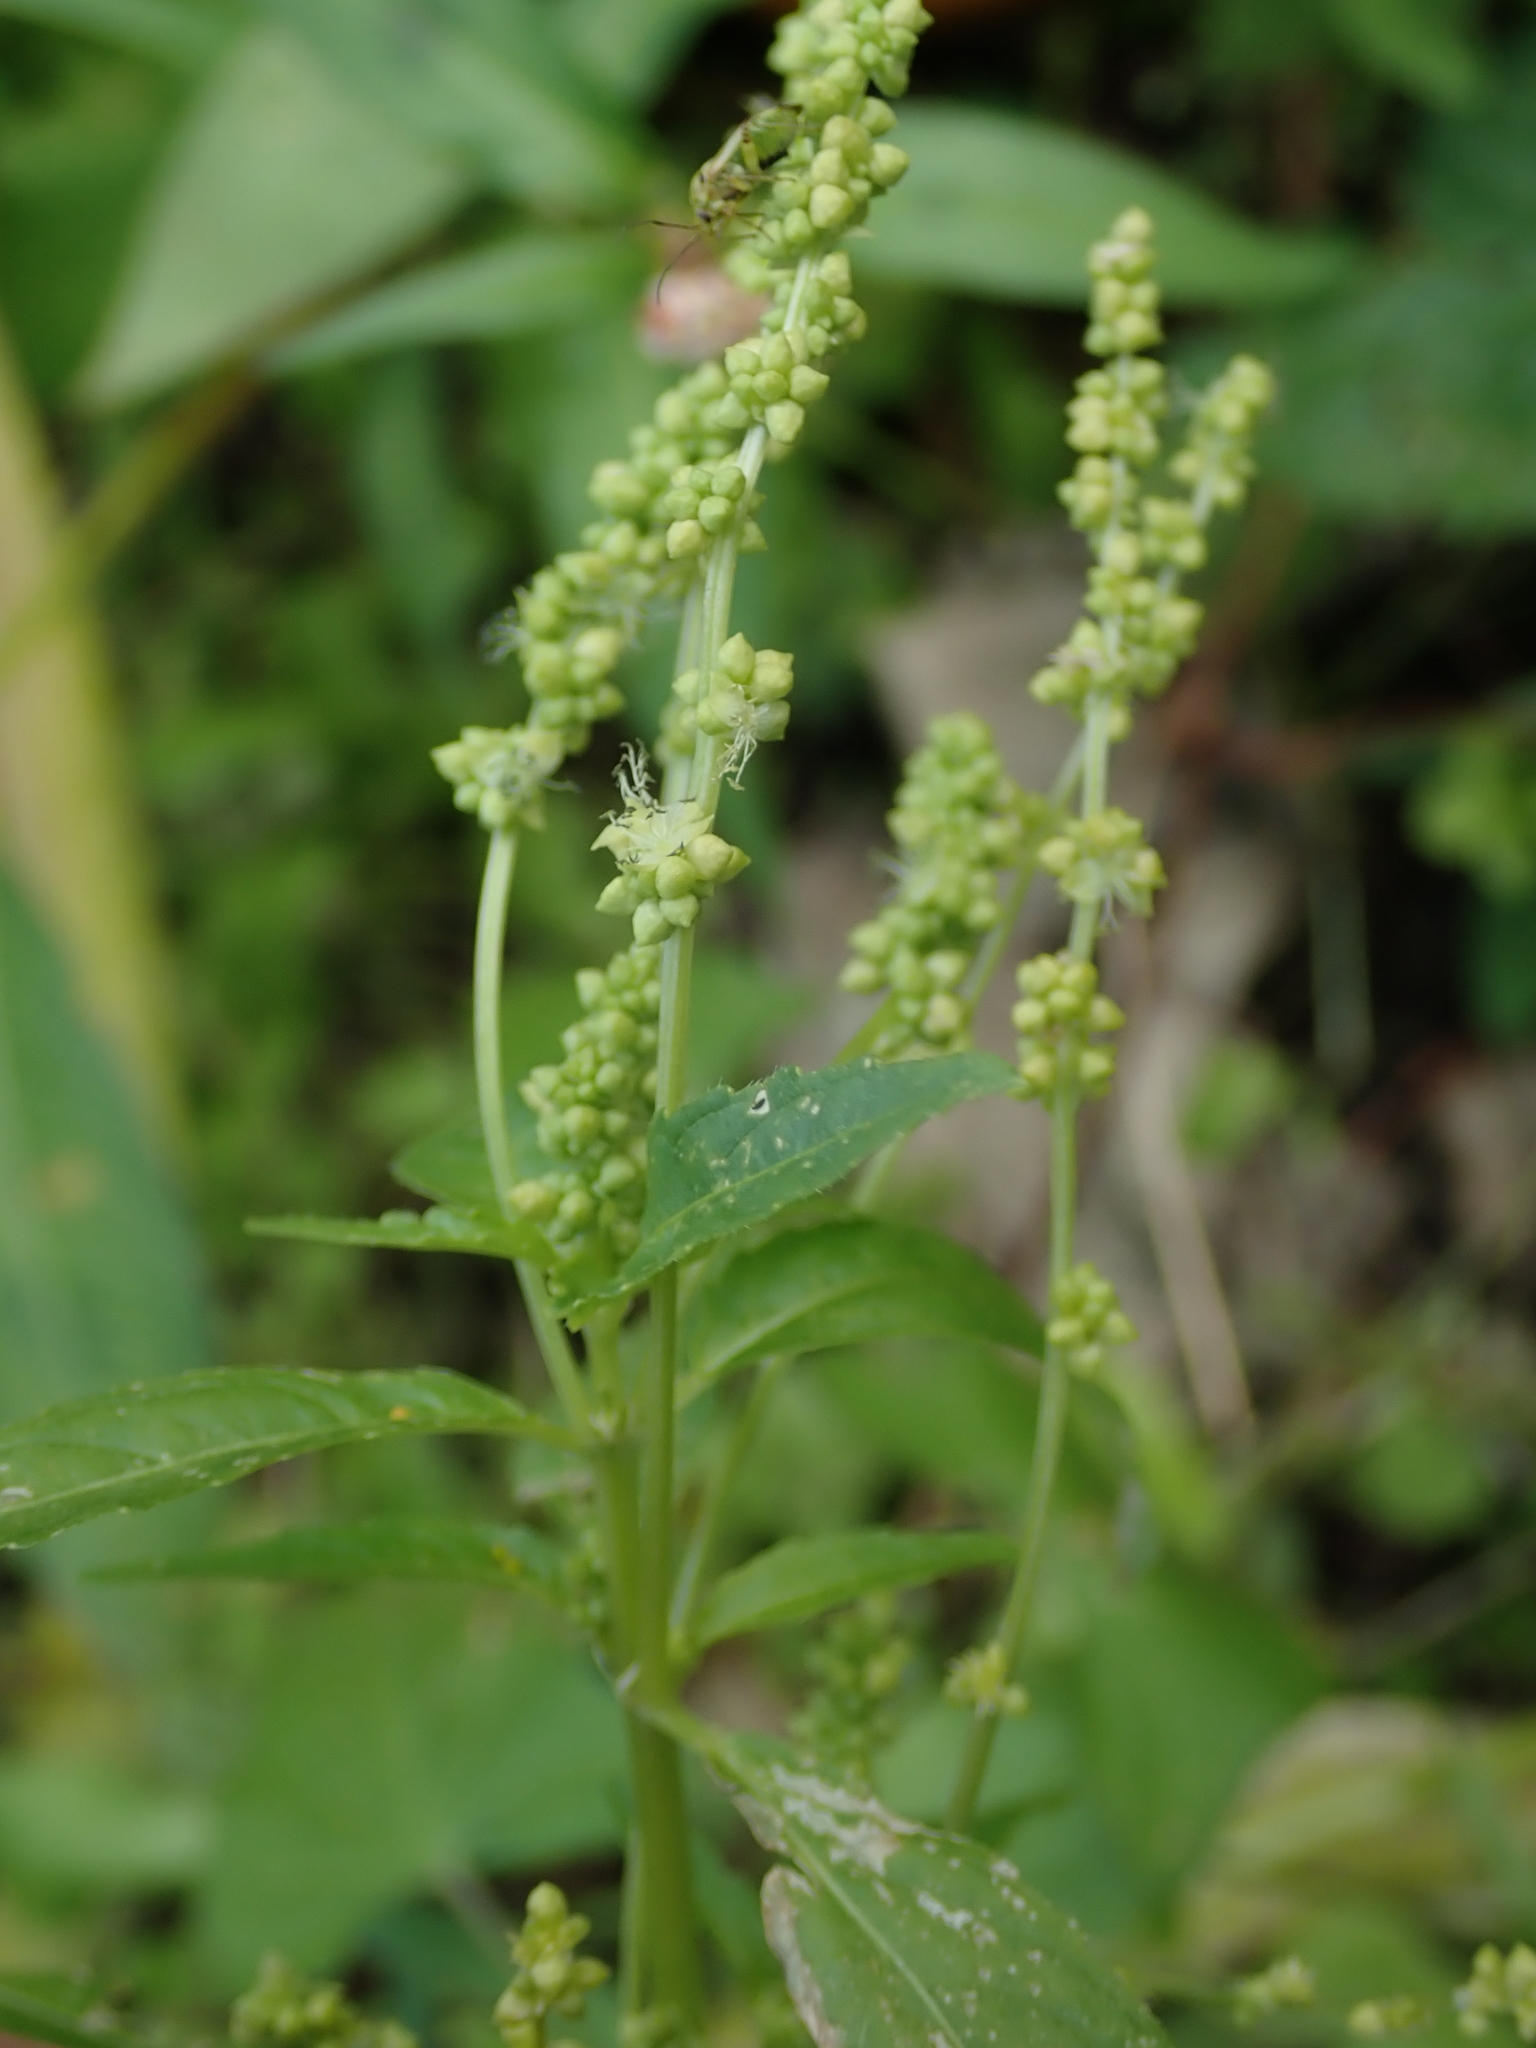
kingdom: Plantae
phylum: Tracheophyta
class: Magnoliopsida
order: Malpighiales
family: Euphorbiaceae
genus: Mercurialis
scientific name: Mercurialis annua
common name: Annual mercury
